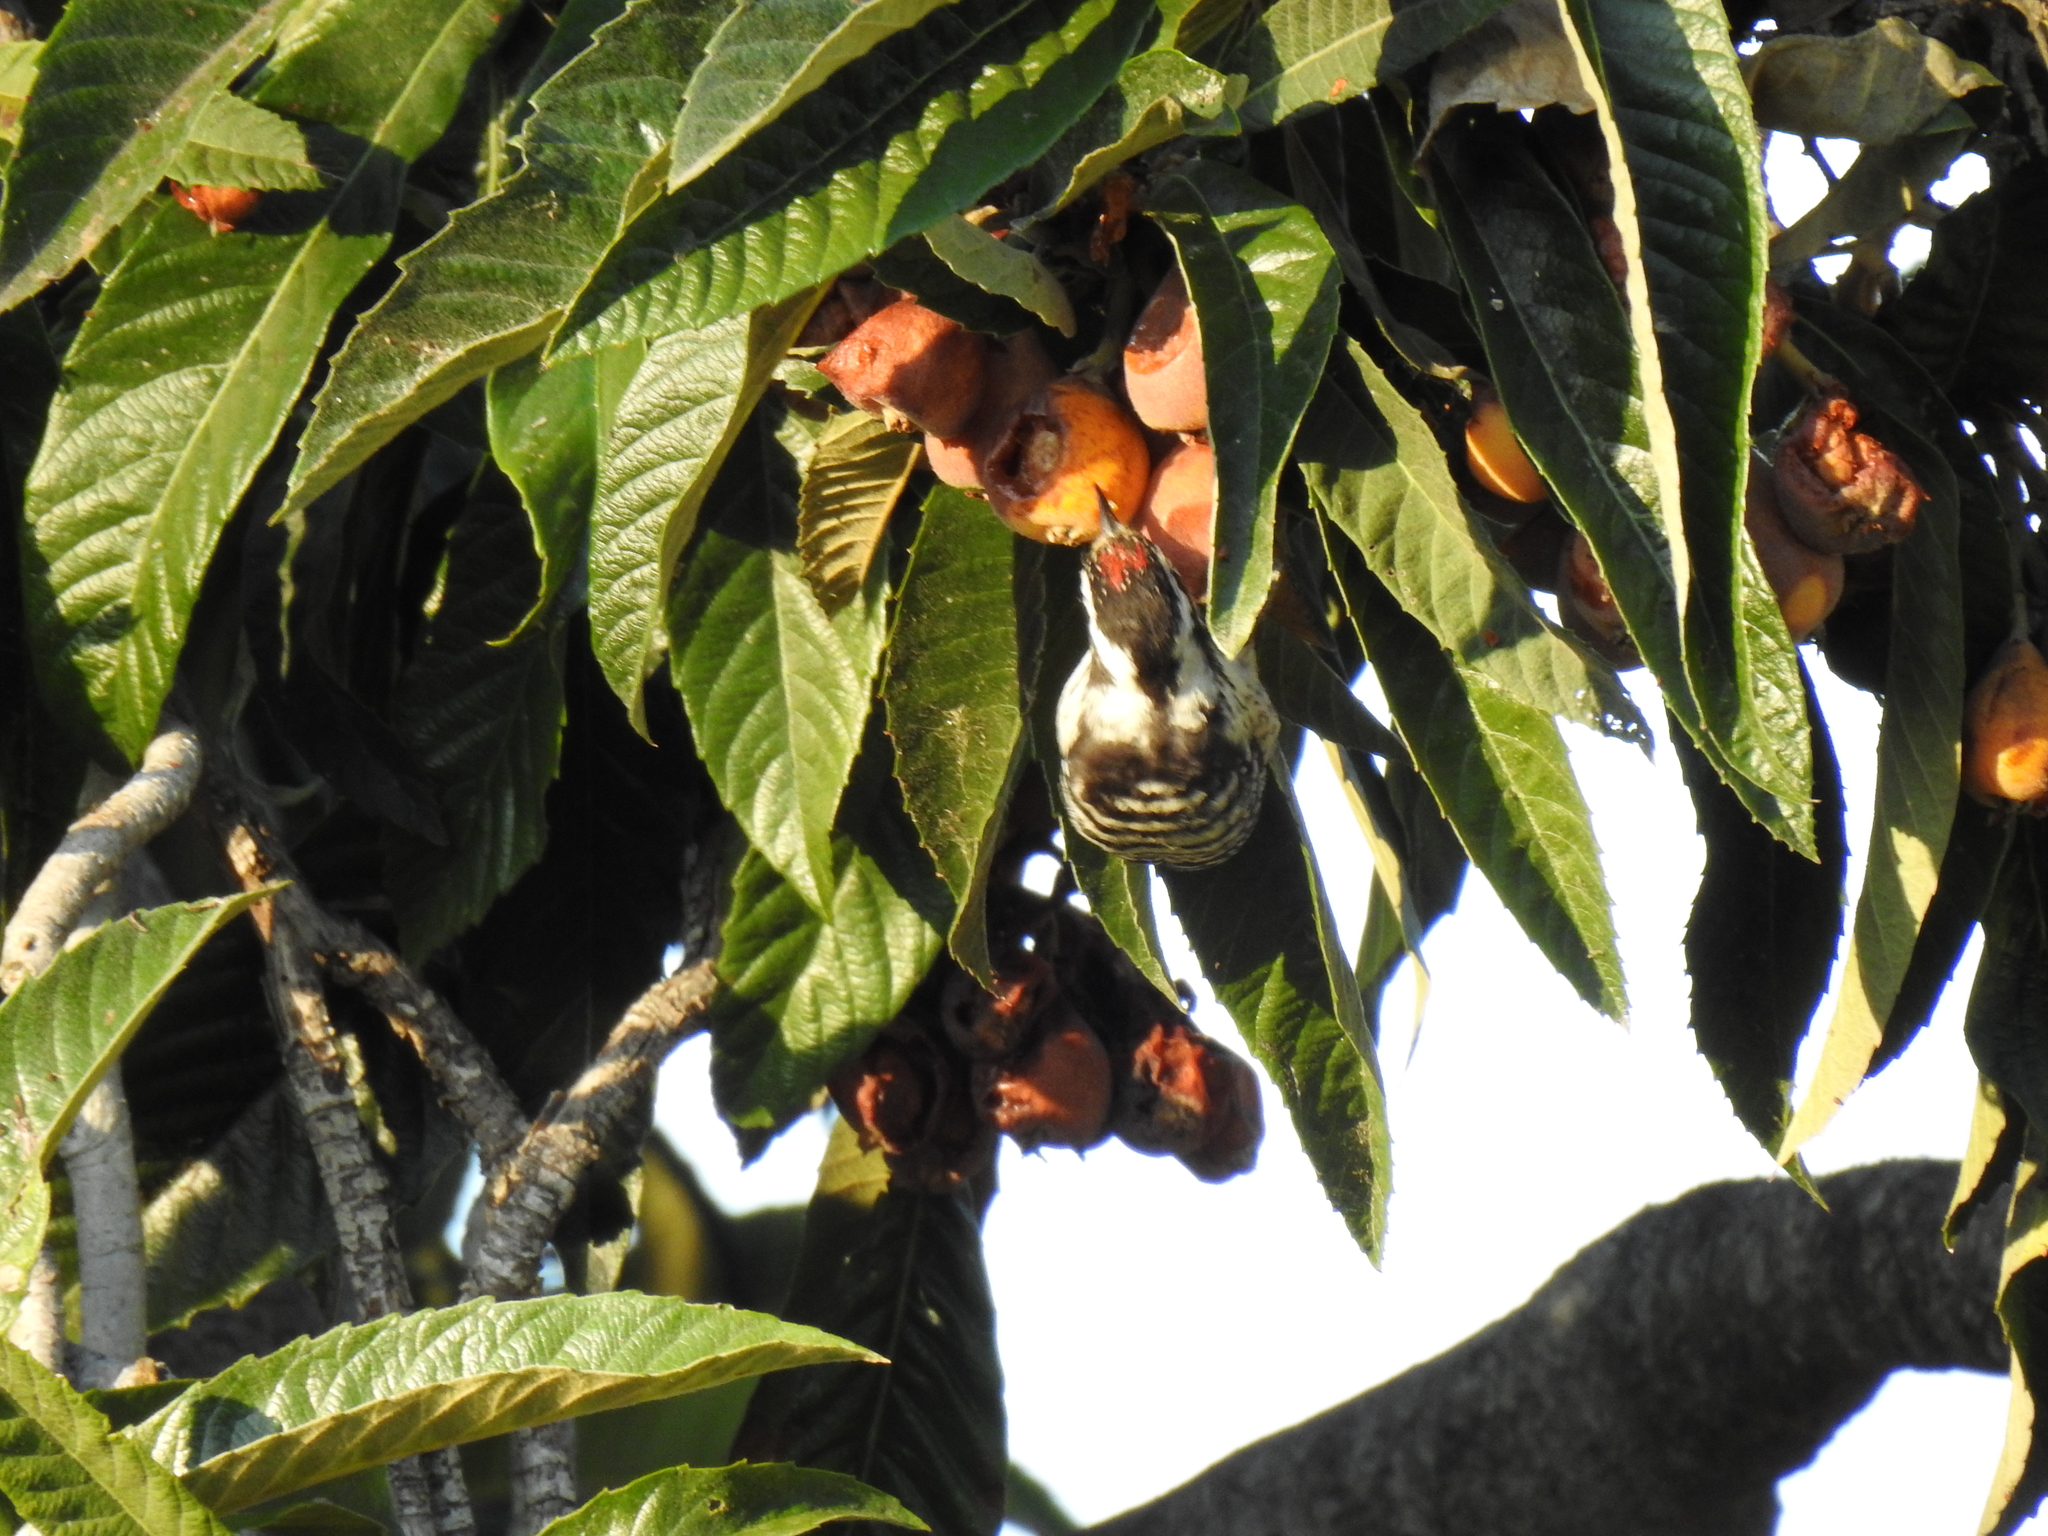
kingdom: Animalia
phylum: Chordata
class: Aves
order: Piciformes
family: Picidae
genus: Dryobates
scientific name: Dryobates nuttallii
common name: Nuttall's woodpecker
